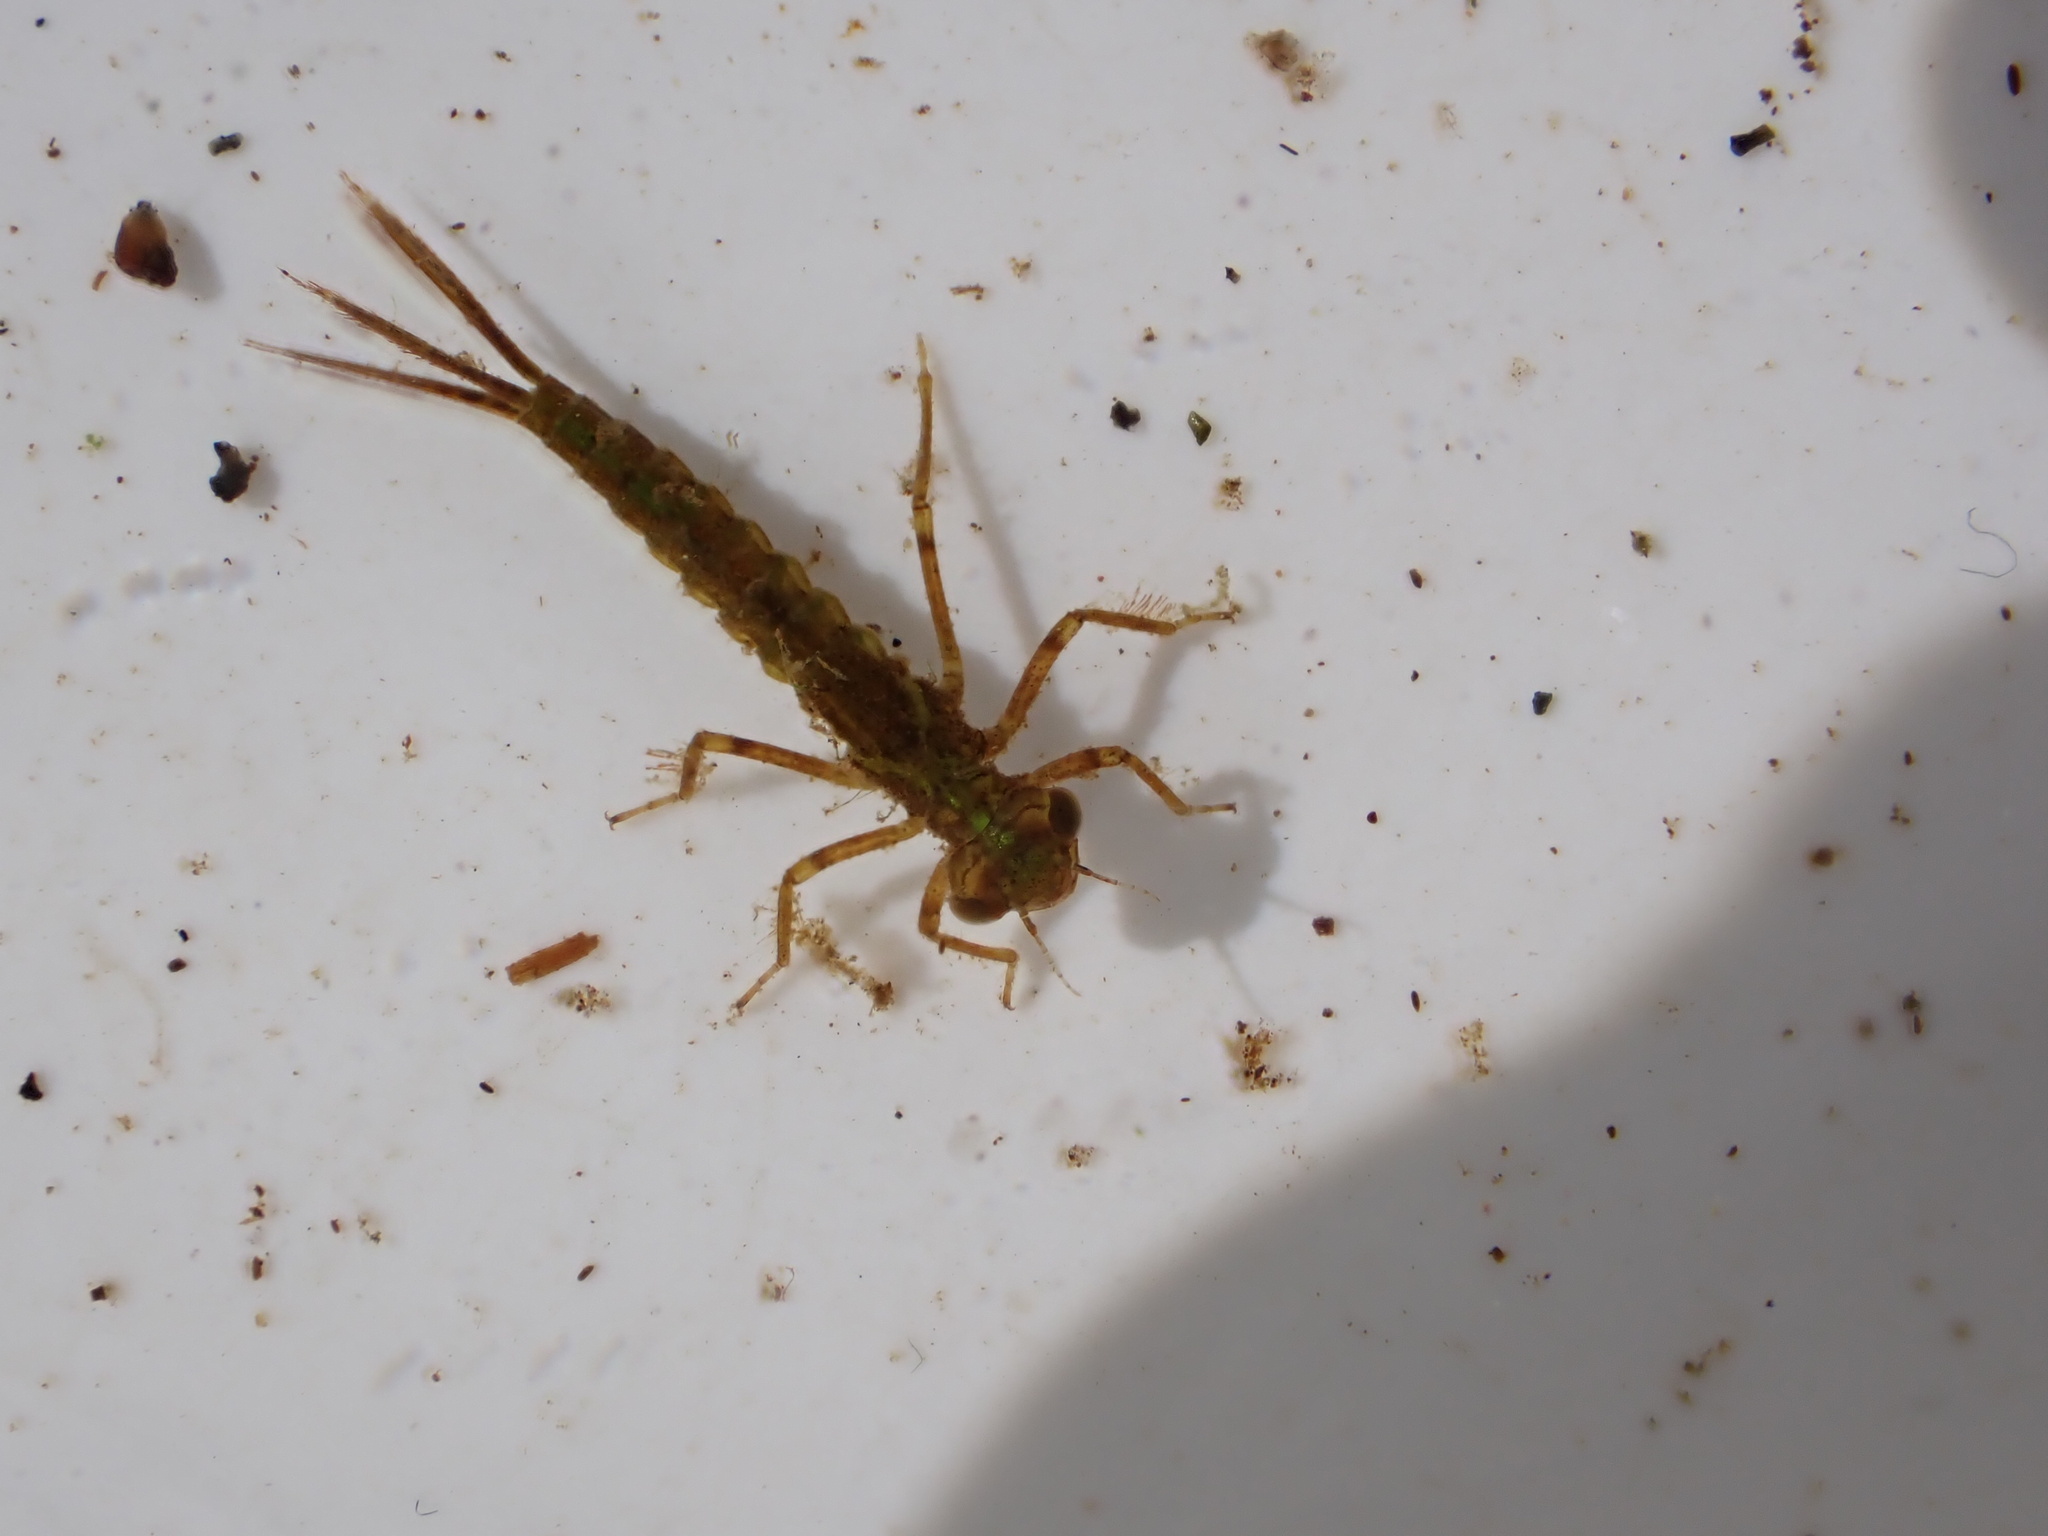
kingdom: Animalia
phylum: Arthropoda
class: Insecta
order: Odonata
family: Coenagrionidae
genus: Xanthocnemis
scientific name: Xanthocnemis zealandica
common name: Common redcoat damselfly
